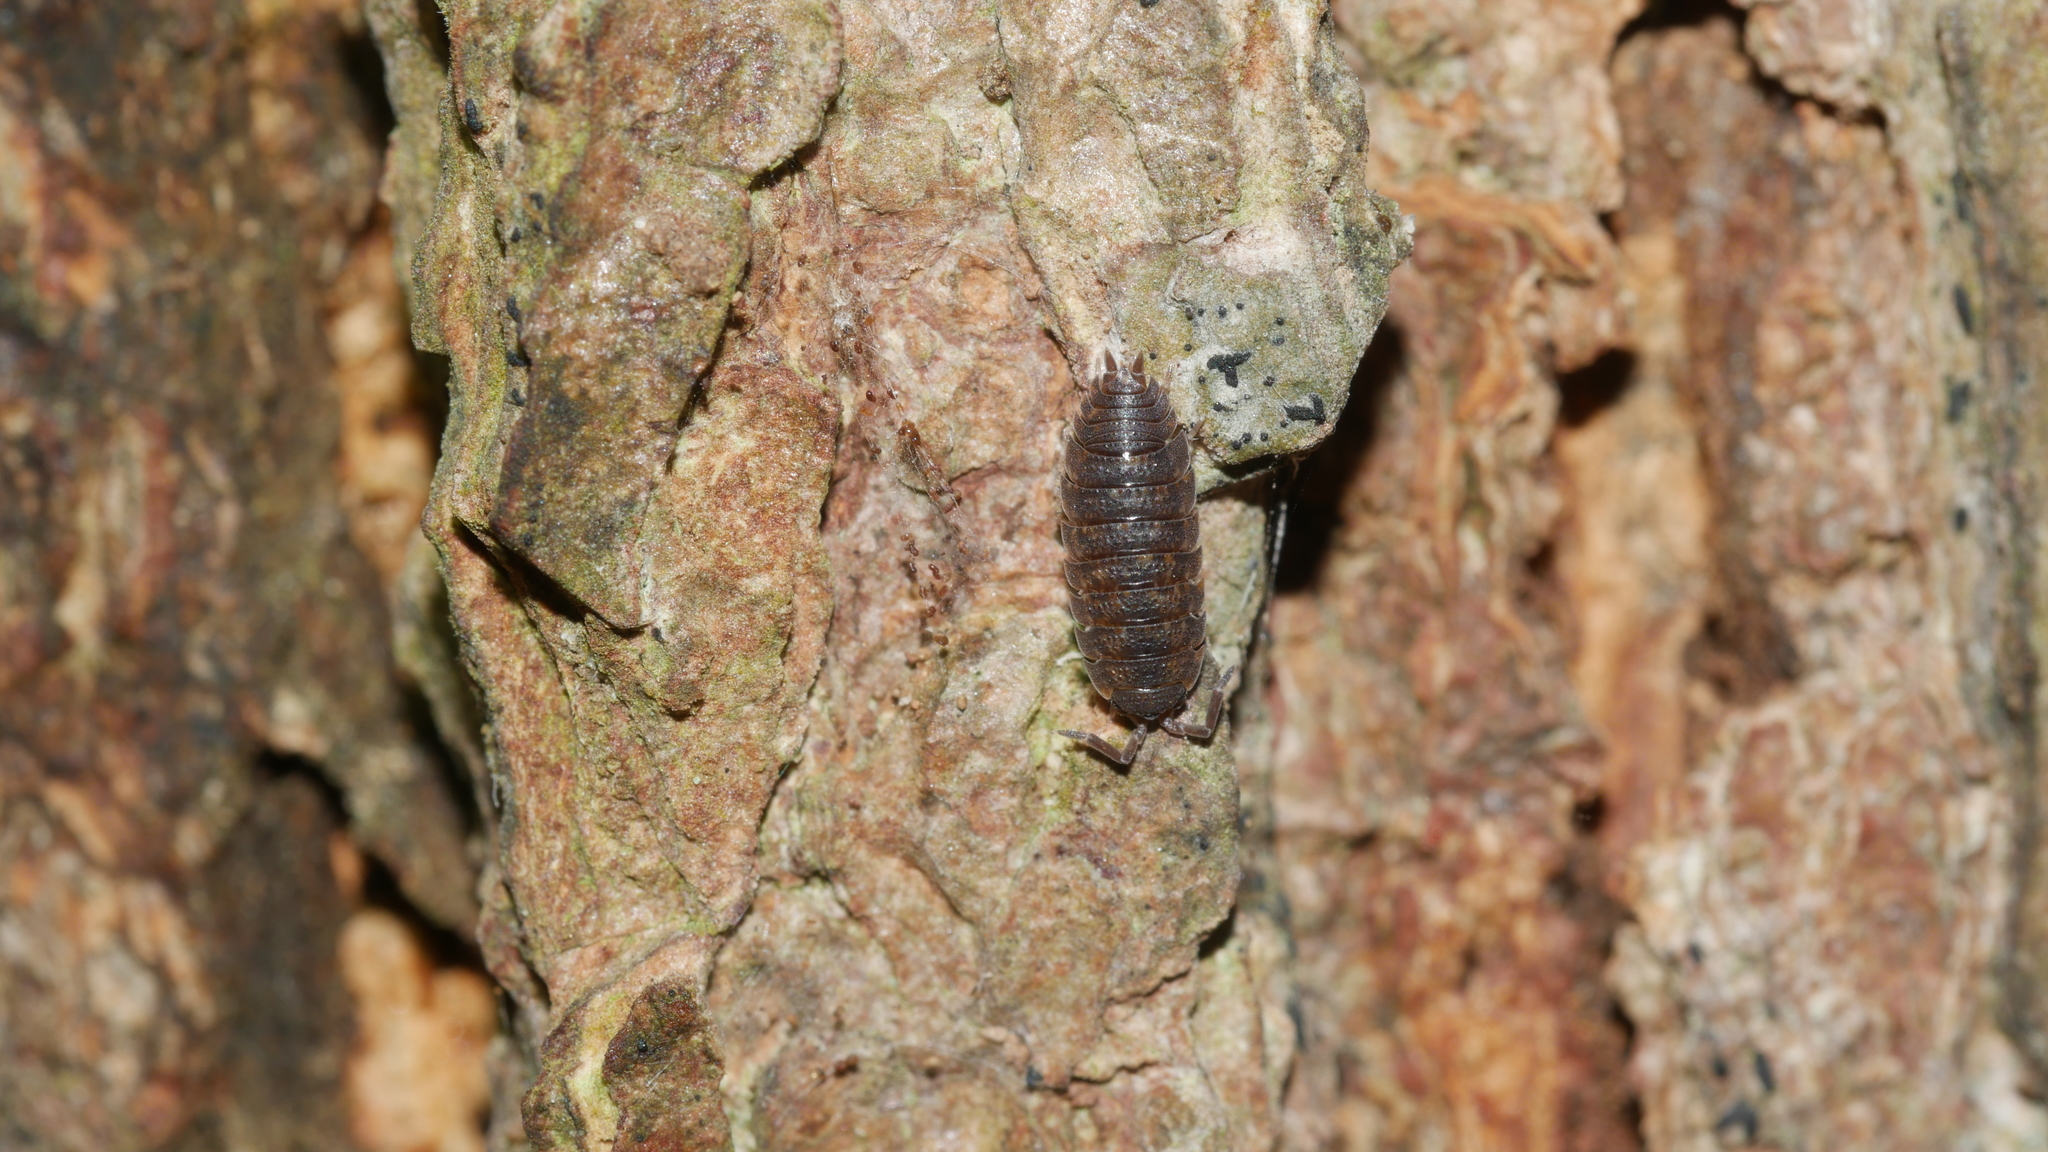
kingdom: Animalia
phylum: Arthropoda
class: Malacostraca
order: Isopoda
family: Porcellionidae
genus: Porcellio
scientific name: Porcellio scaber
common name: Common rough woodlouse
